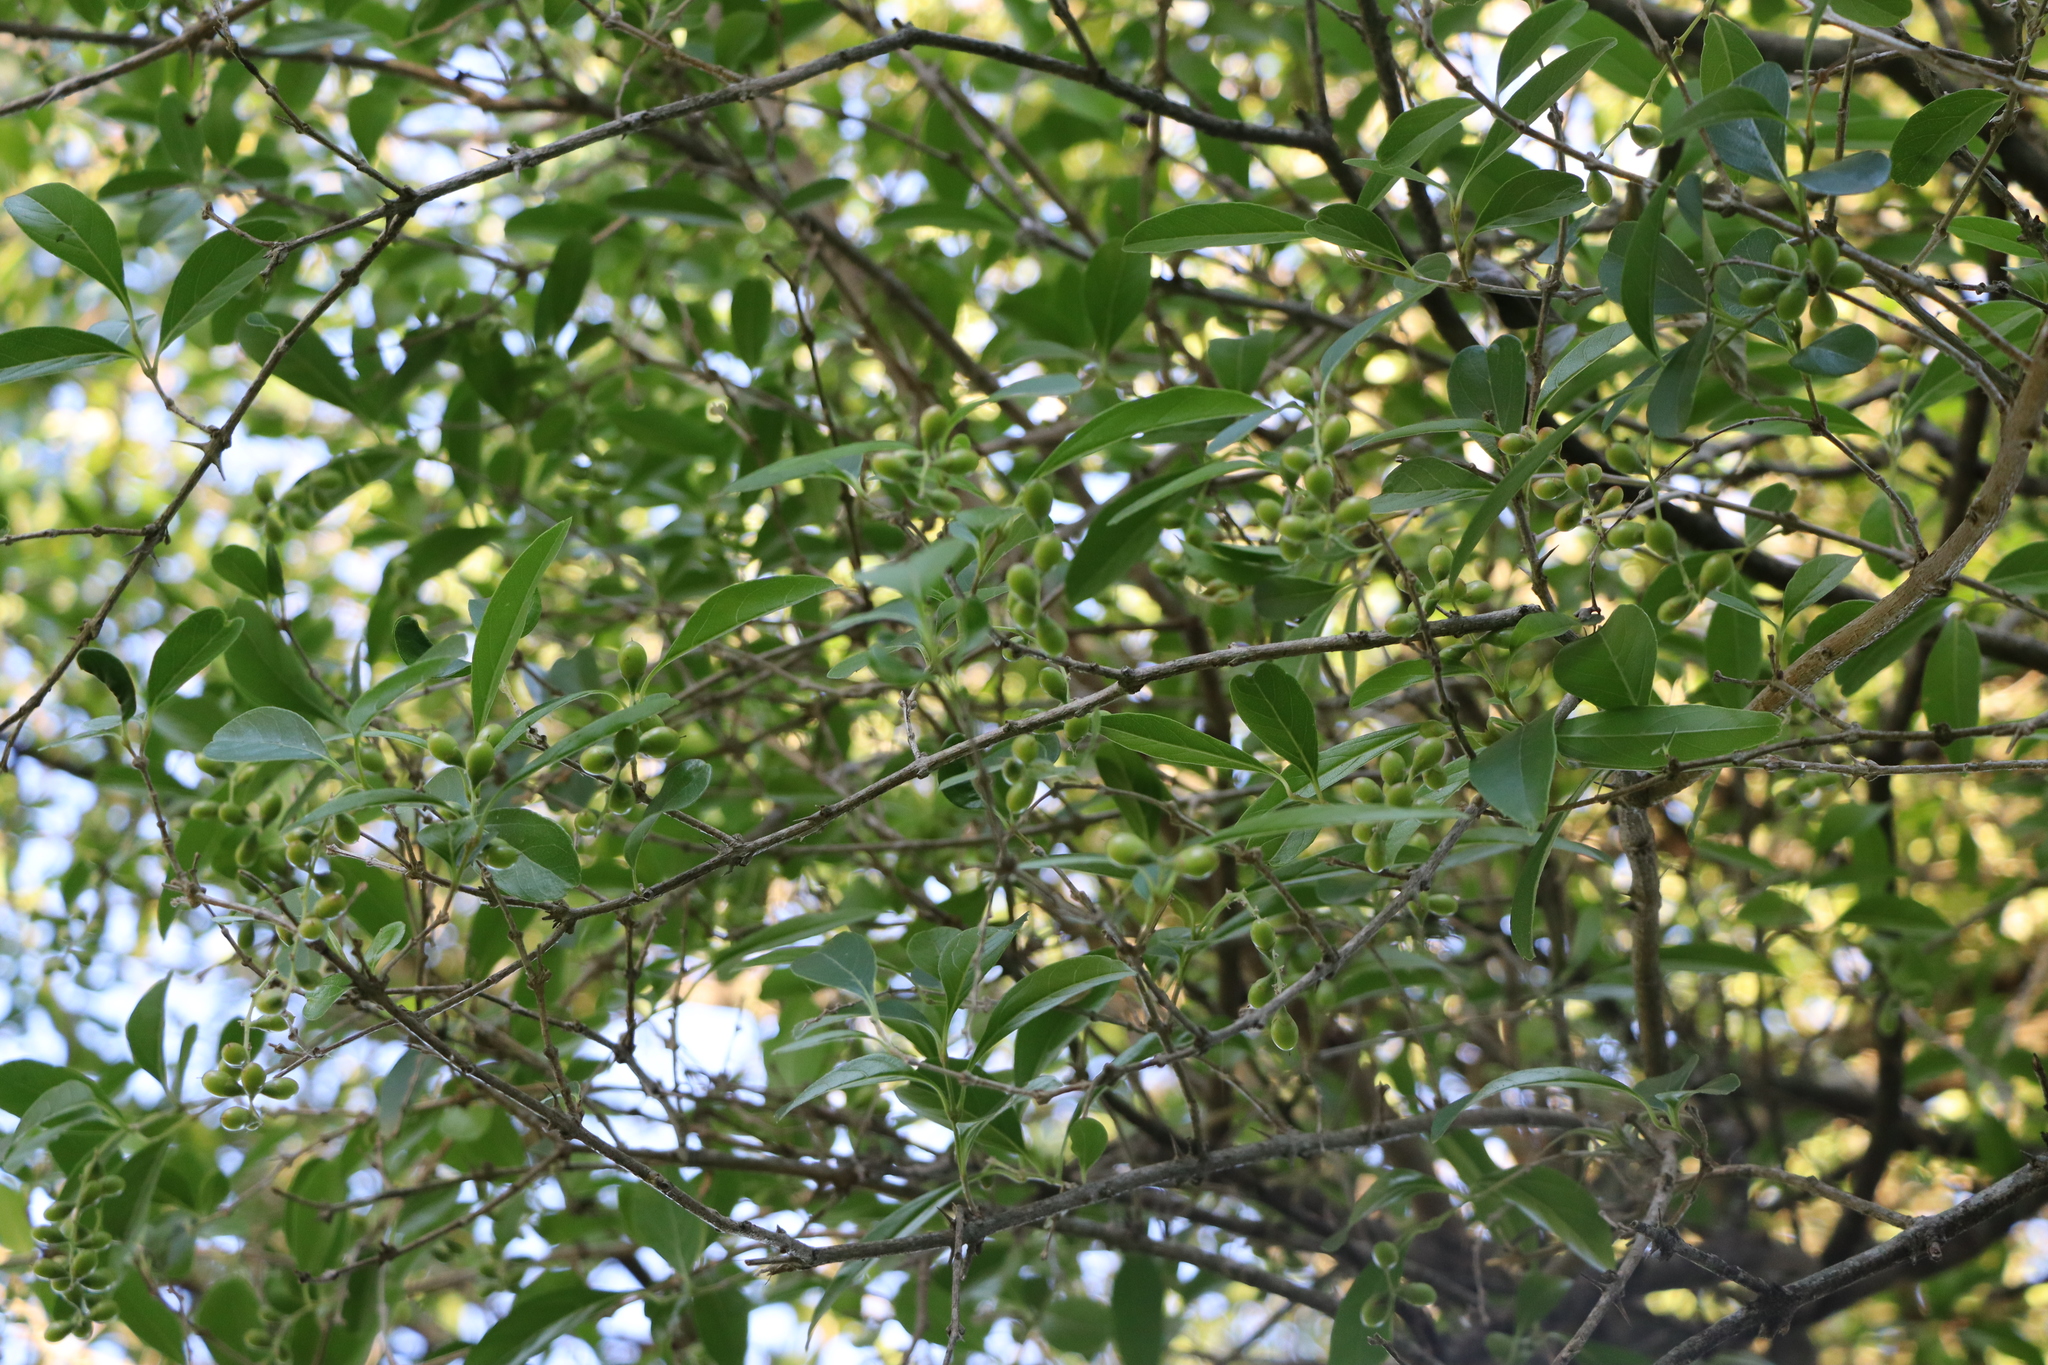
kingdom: Plantae
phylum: Tracheophyta
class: Magnoliopsida
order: Lamiales
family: Verbenaceae
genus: Citharexylum
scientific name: Citharexylum montevidense
